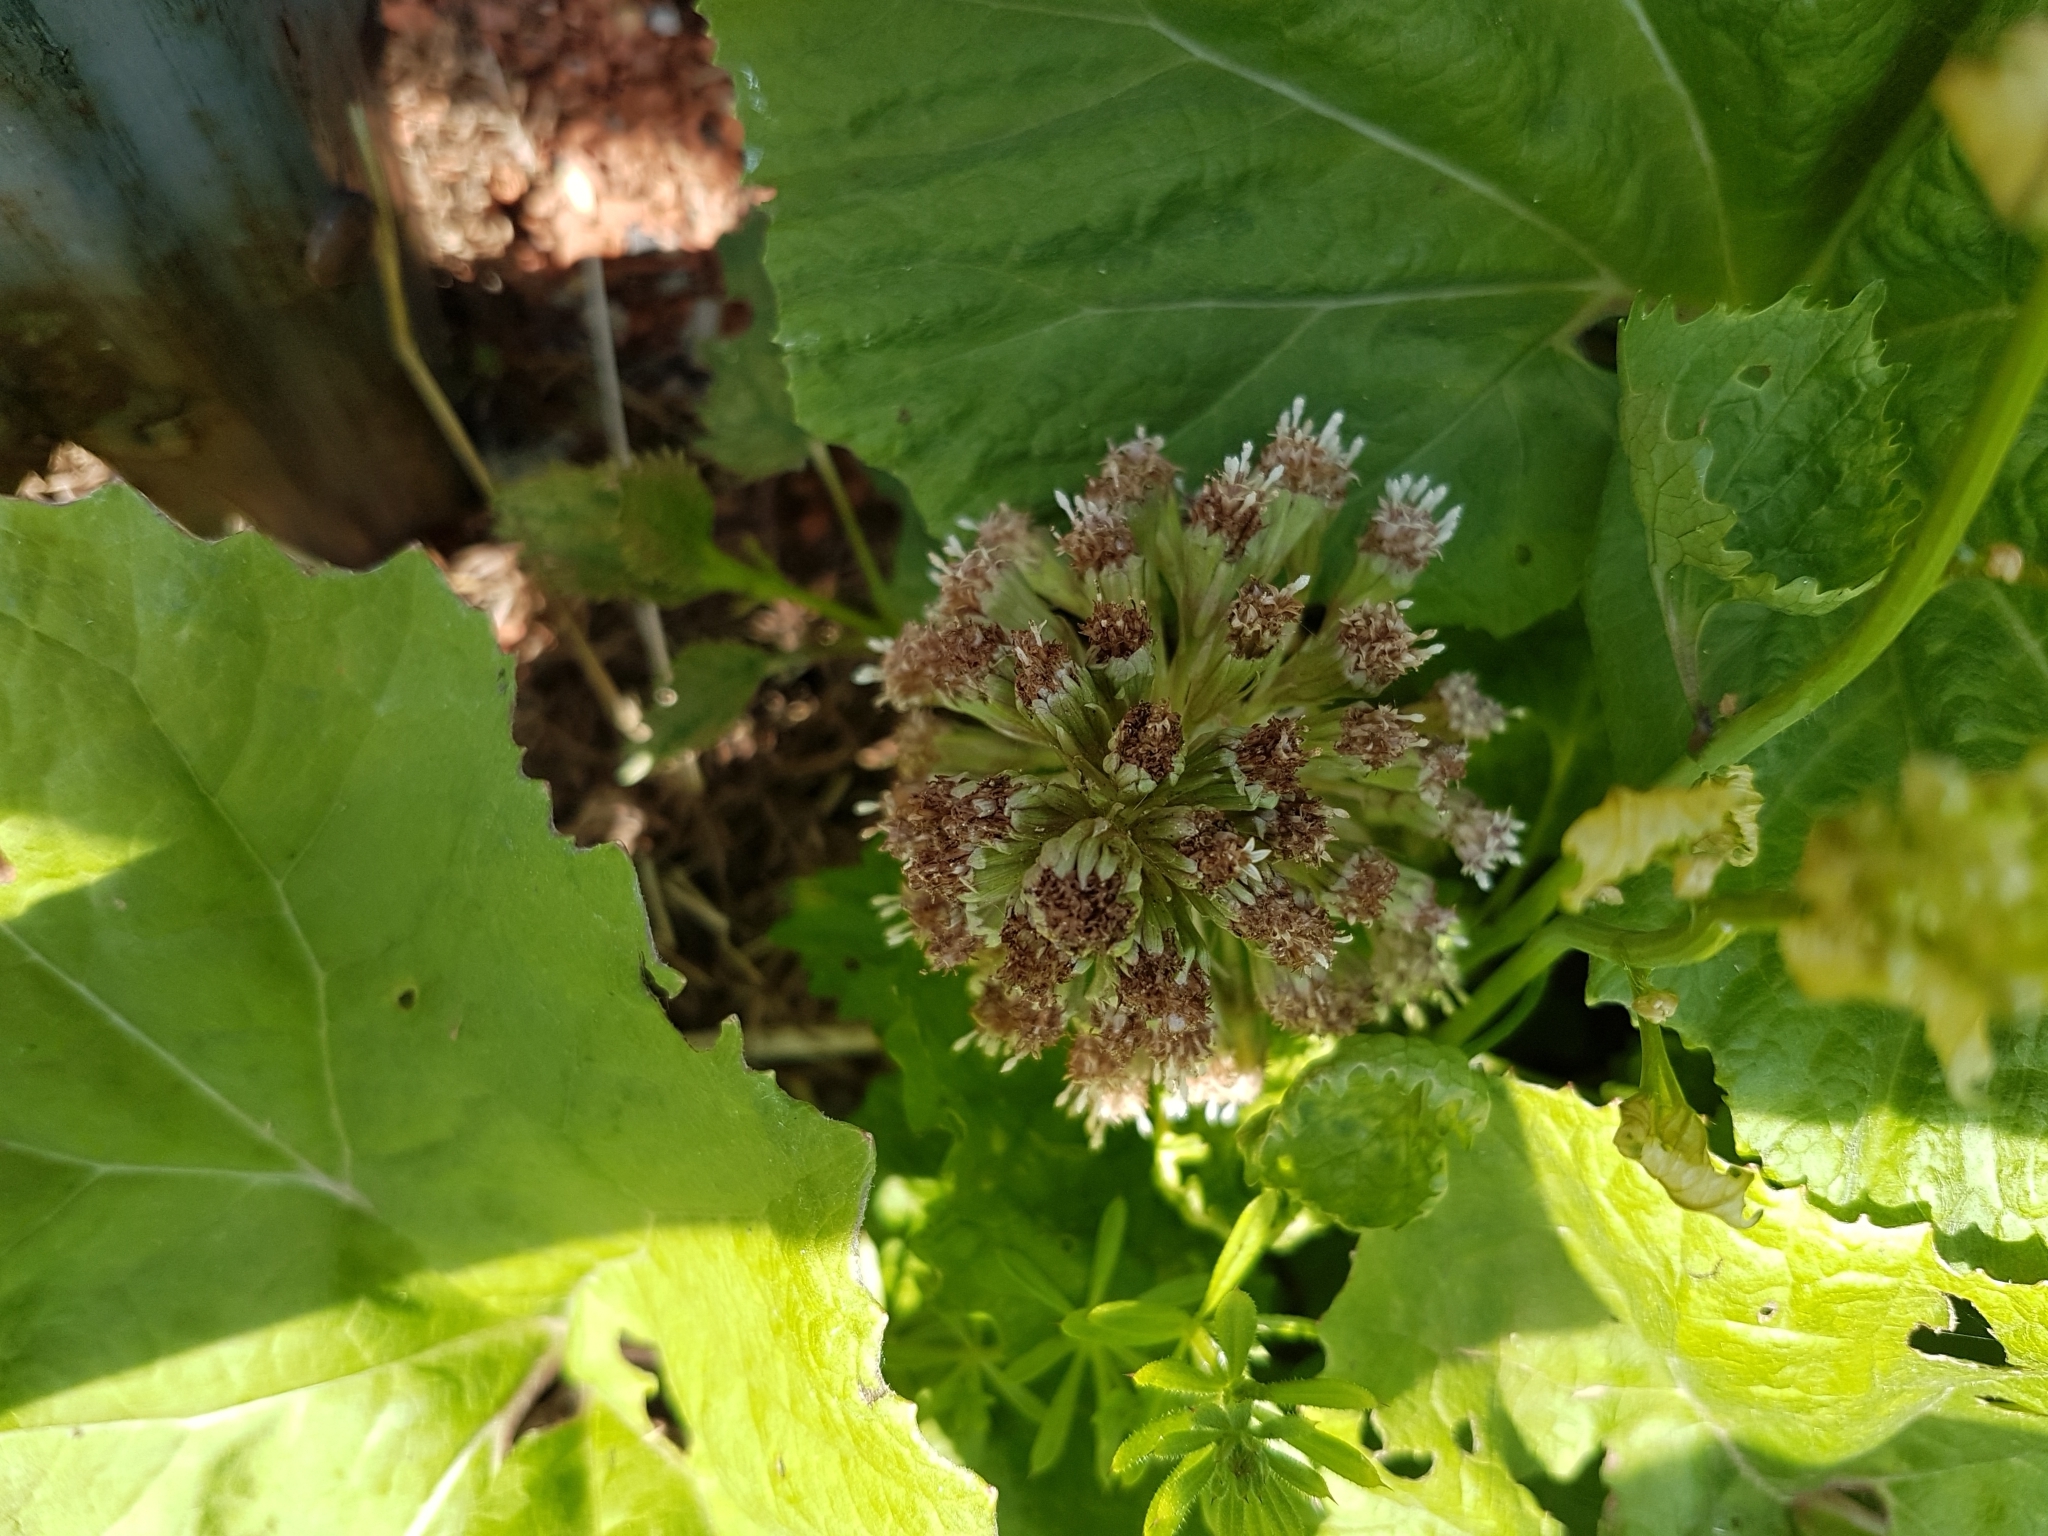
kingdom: Plantae
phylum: Tracheophyta
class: Magnoliopsida
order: Asterales
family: Asteraceae
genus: Petasites
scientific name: Petasites hybridus
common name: Butterbur
